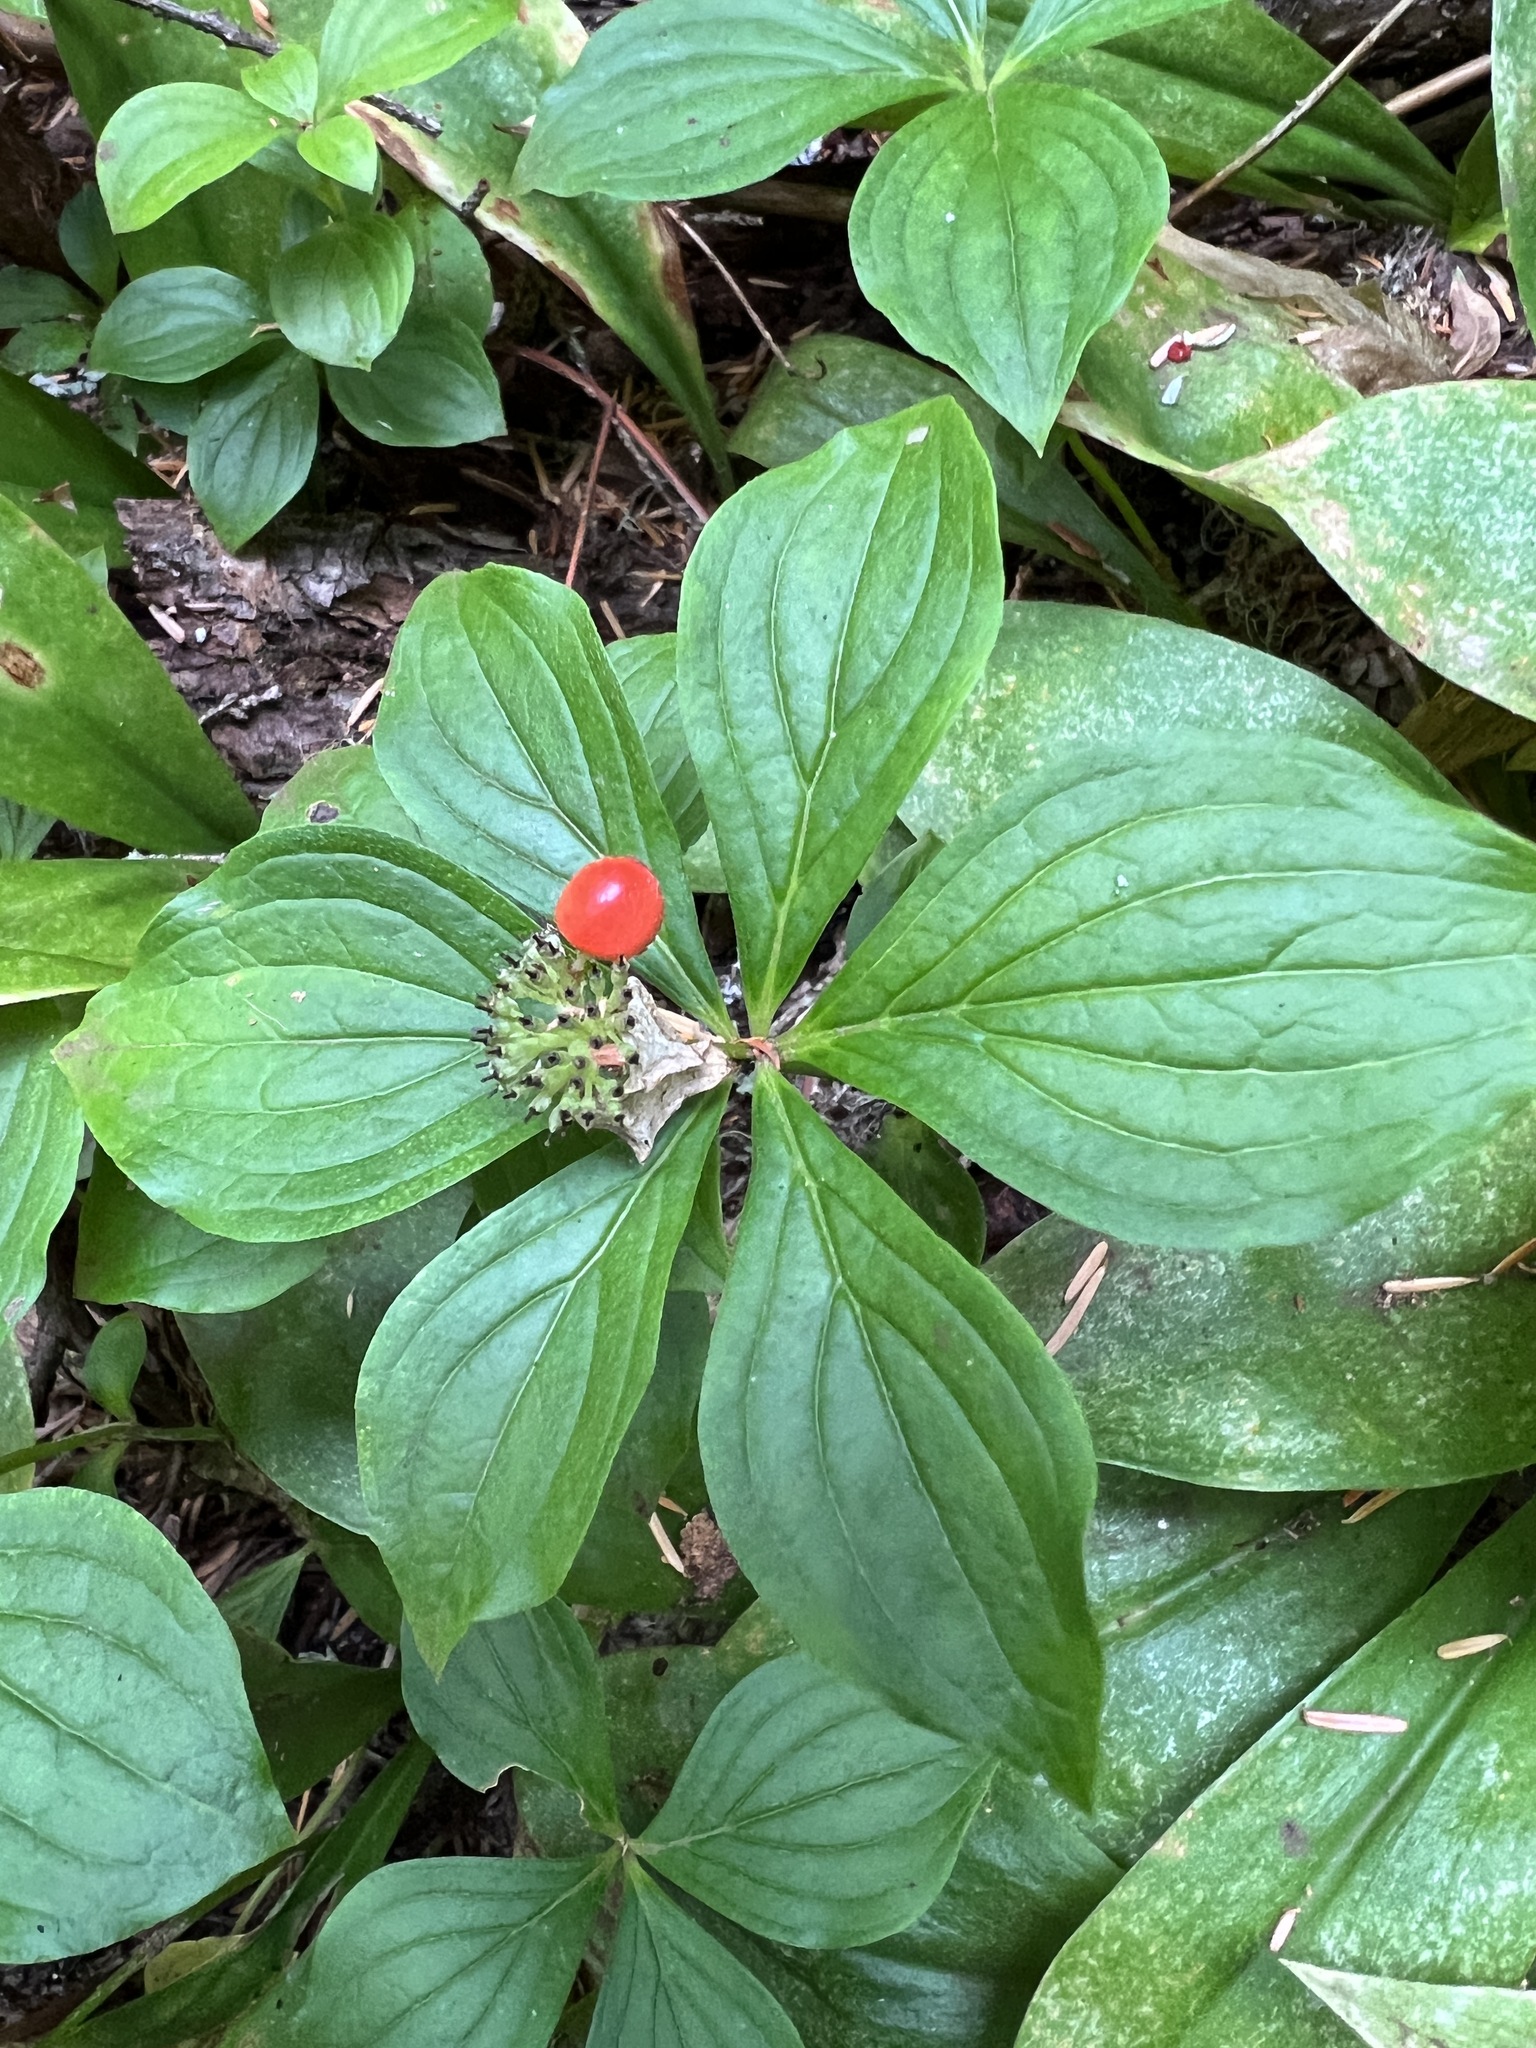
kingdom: Plantae
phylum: Tracheophyta
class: Magnoliopsida
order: Cornales
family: Cornaceae
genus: Cornus
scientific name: Cornus unalaschkensis
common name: Alaska bunchberry
